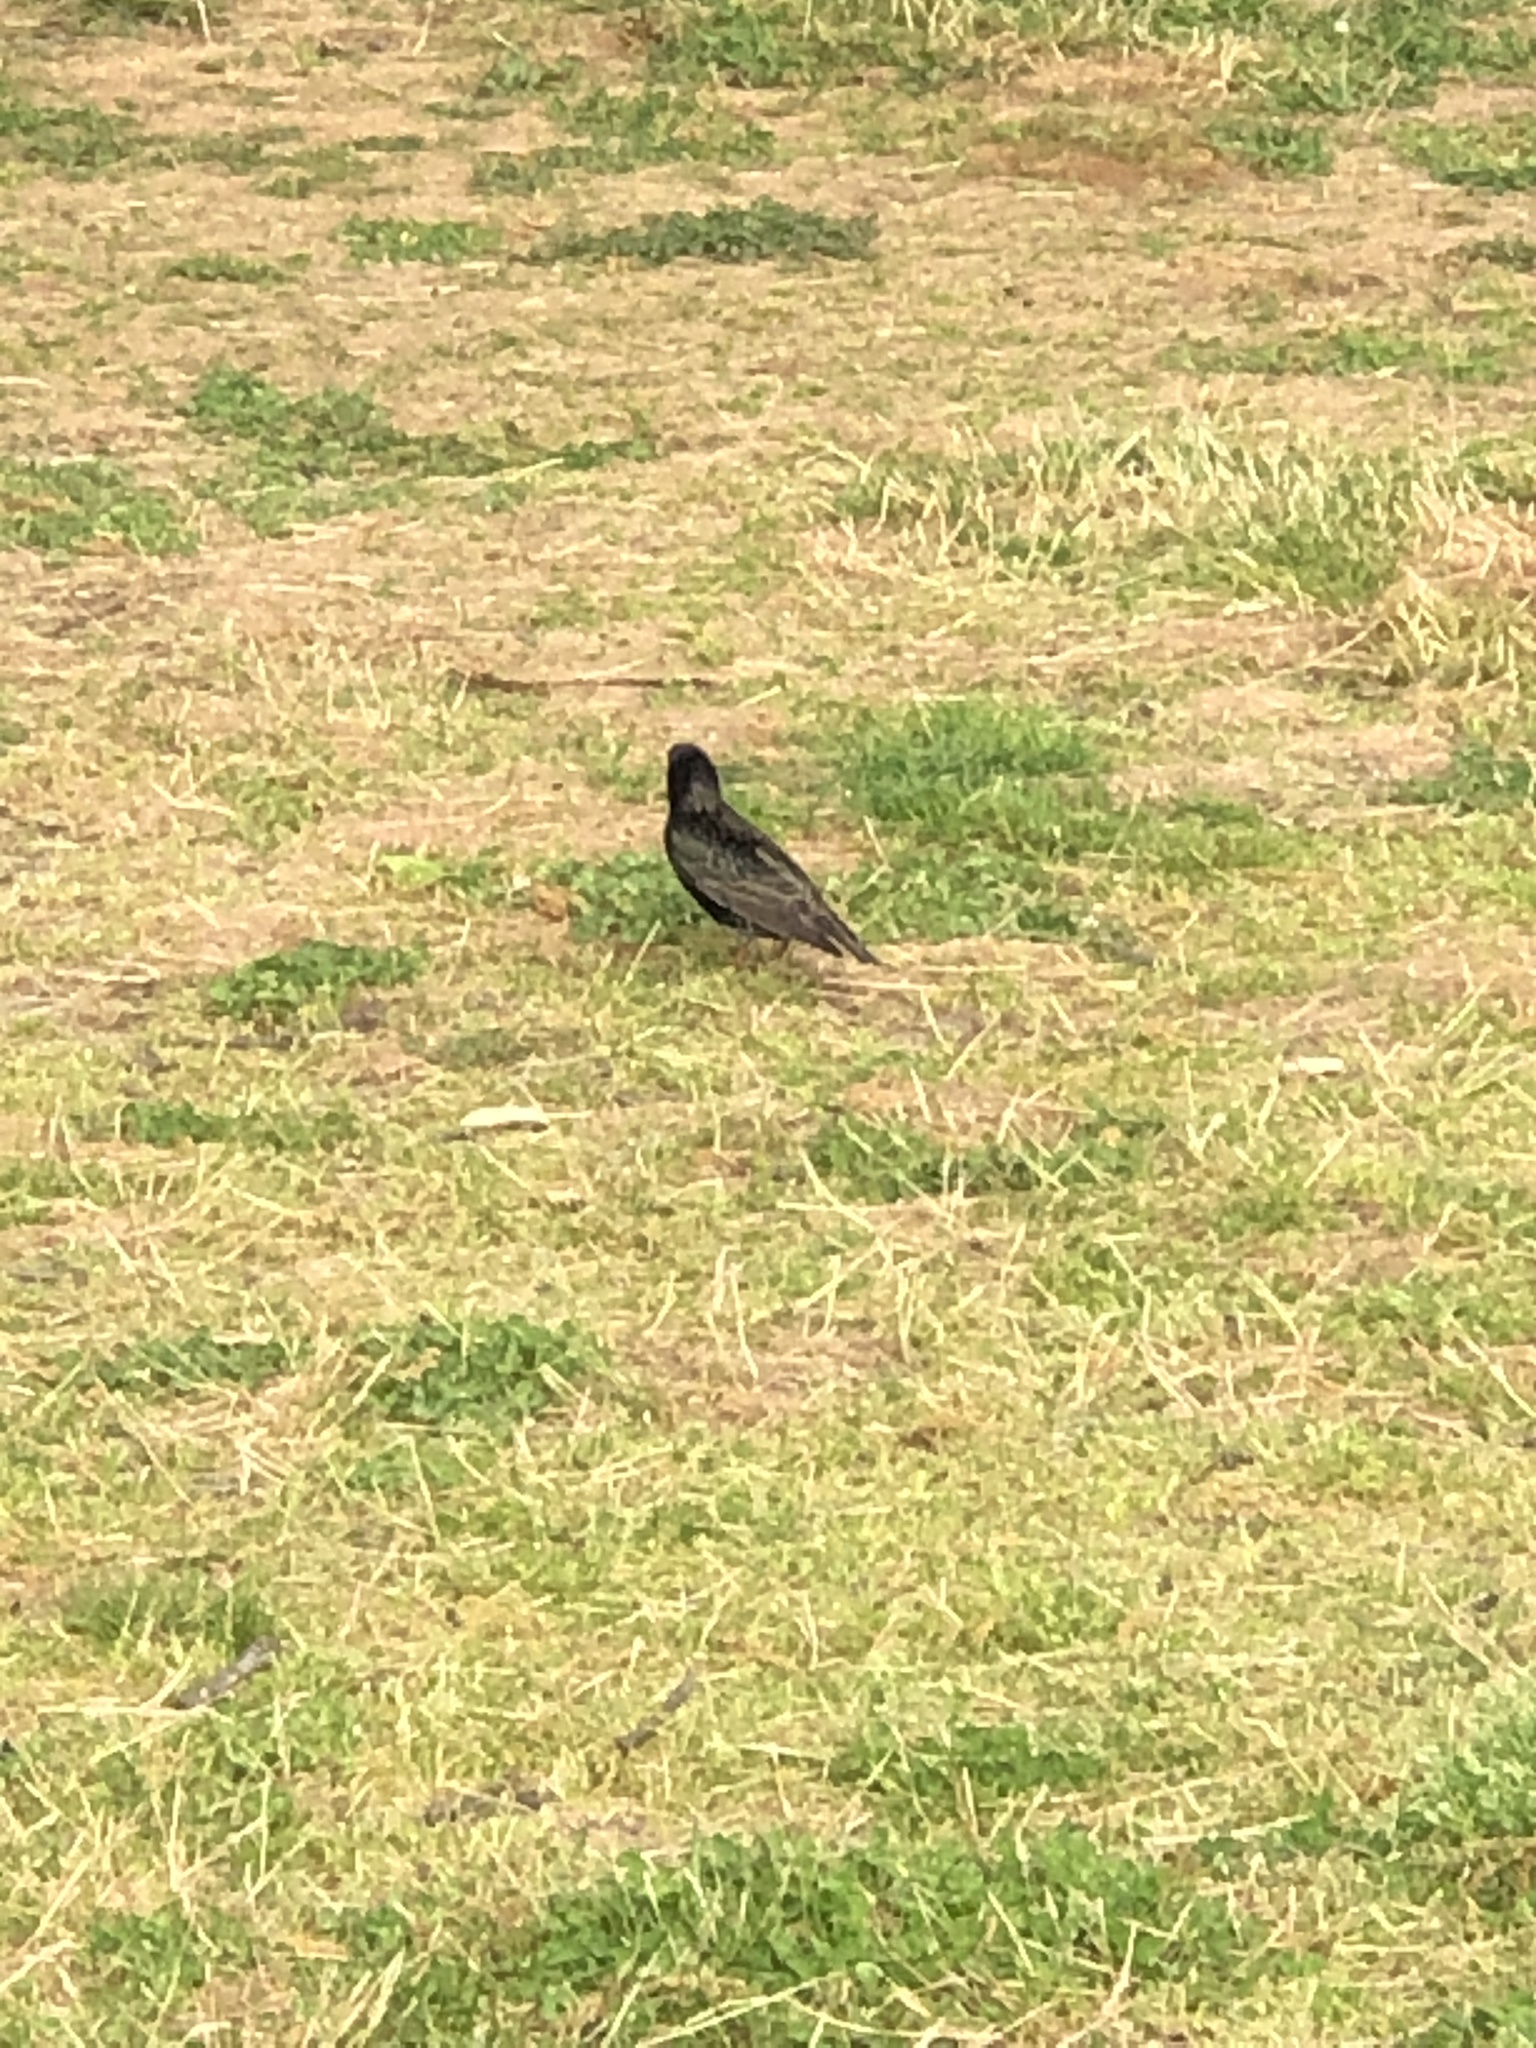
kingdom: Animalia
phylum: Chordata
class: Aves
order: Passeriformes
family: Sturnidae
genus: Sturnus
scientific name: Sturnus vulgaris
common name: Common starling
